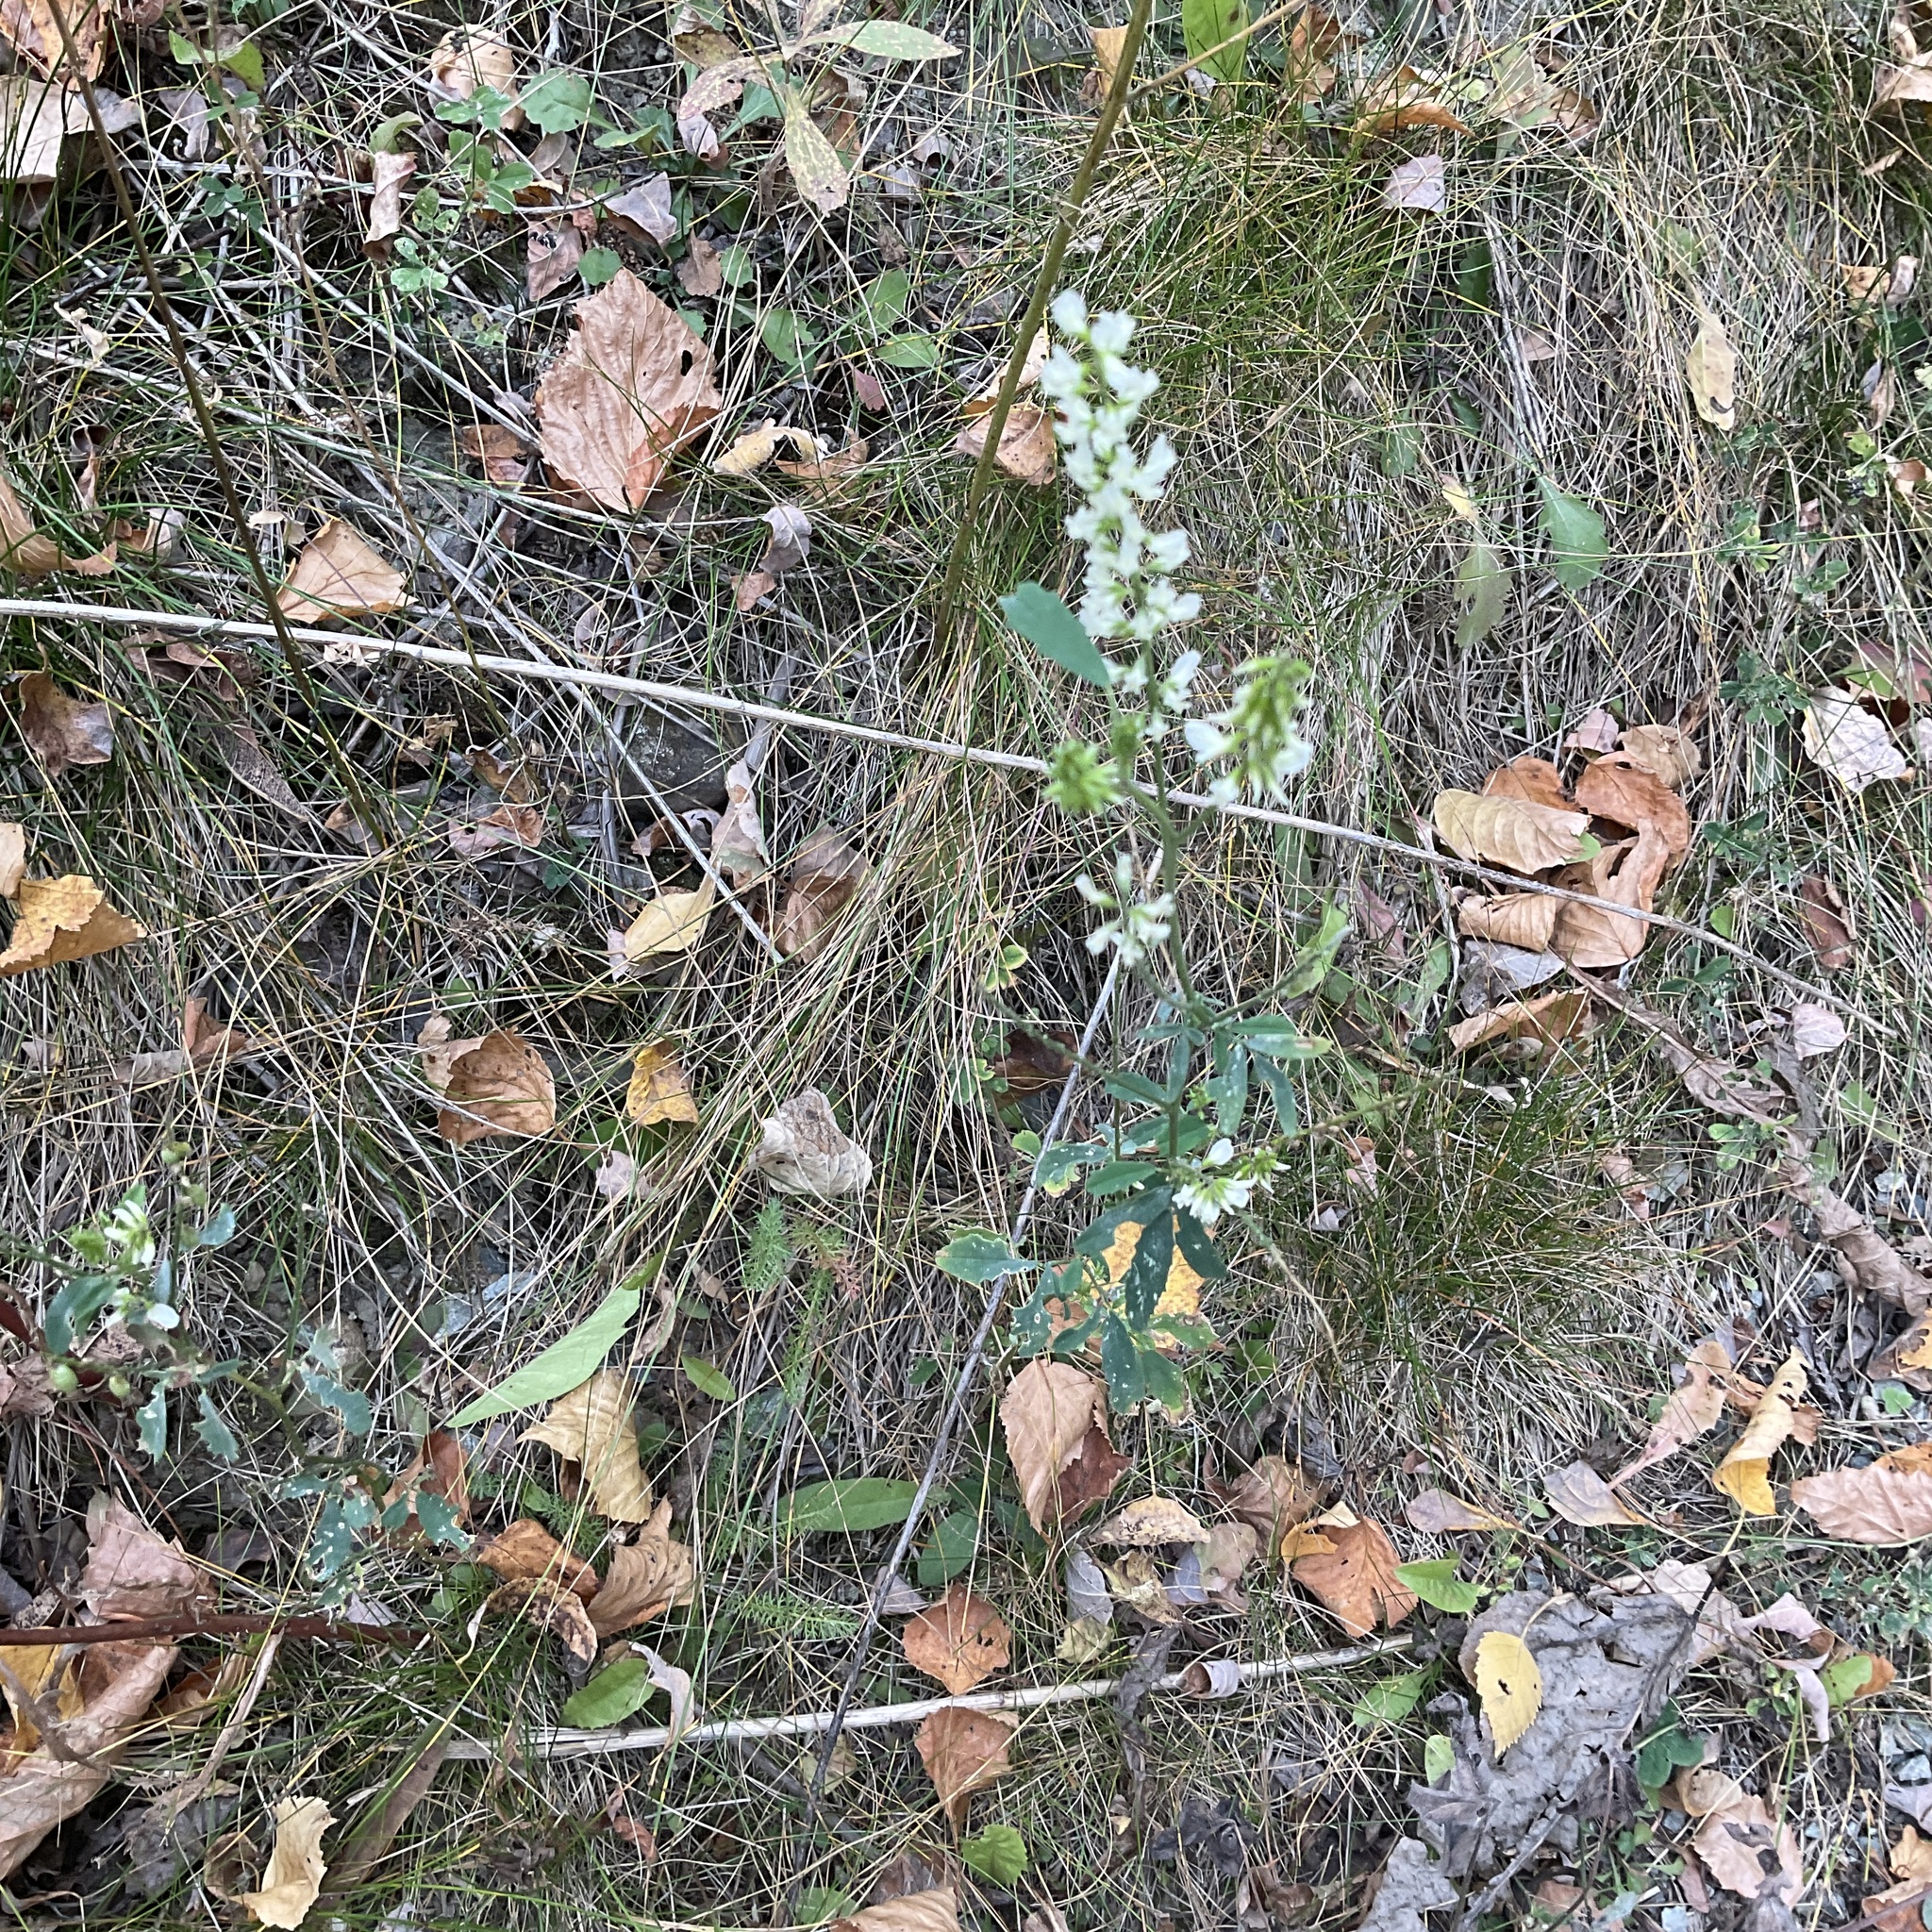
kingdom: Plantae
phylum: Tracheophyta
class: Magnoliopsida
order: Fabales
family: Fabaceae
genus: Melilotus
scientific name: Melilotus albus
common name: White melilot
